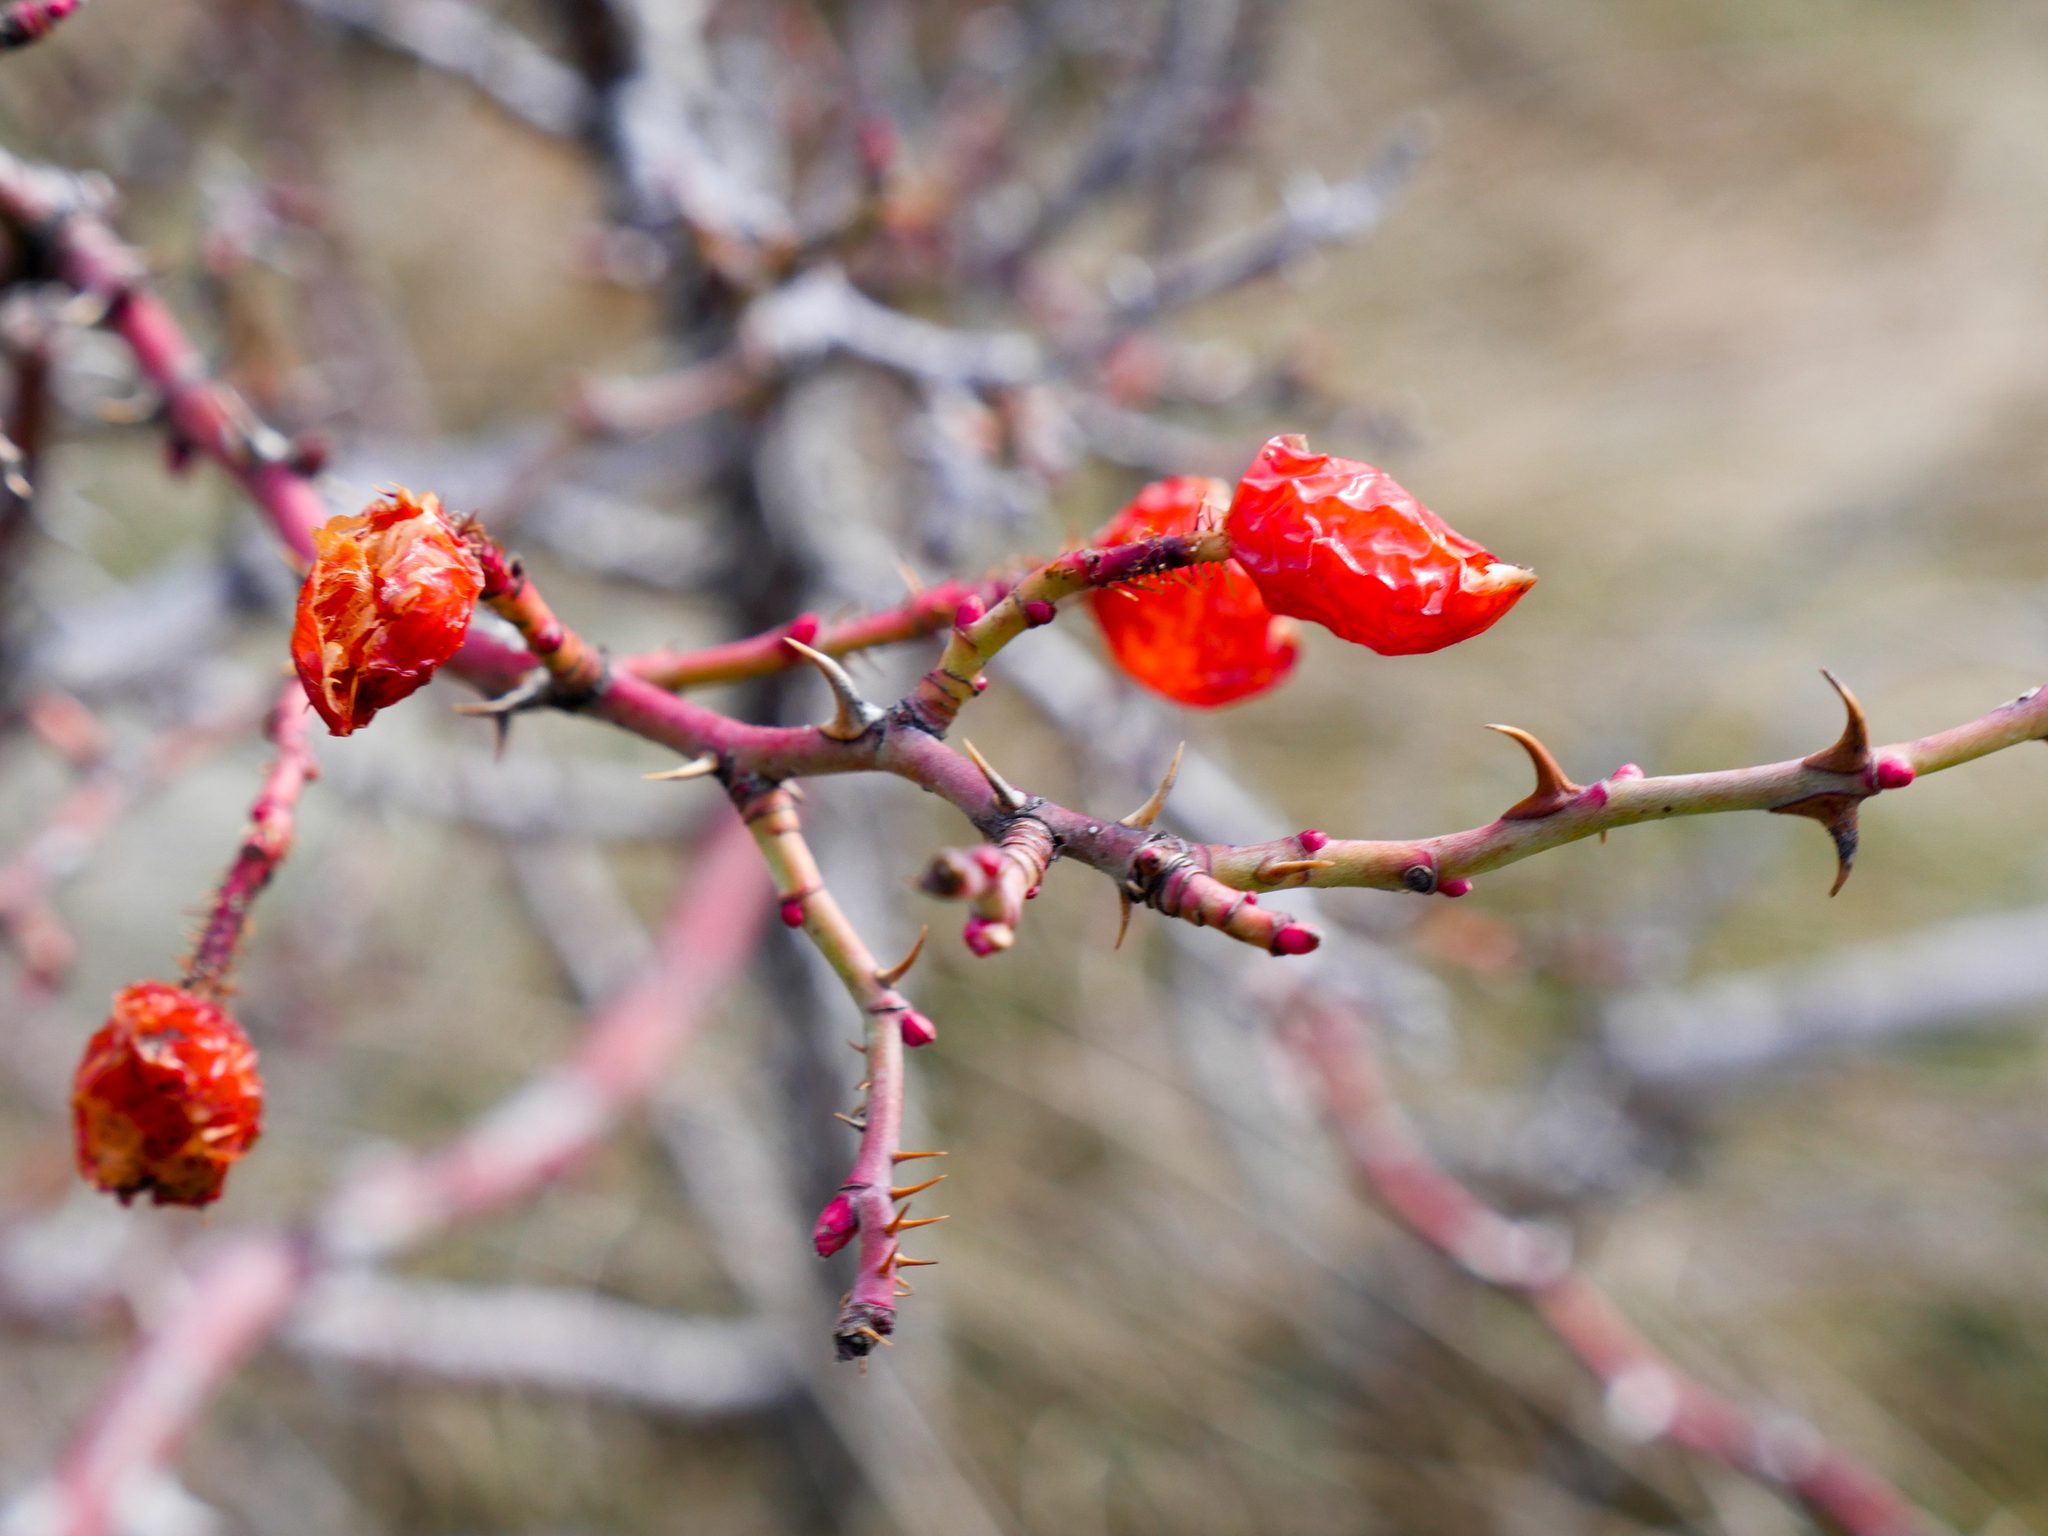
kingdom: Plantae
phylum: Tracheophyta
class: Magnoliopsida
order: Rosales
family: Rosaceae
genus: Rosa
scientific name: Rosa rubiginosa
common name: Sweet-briar
